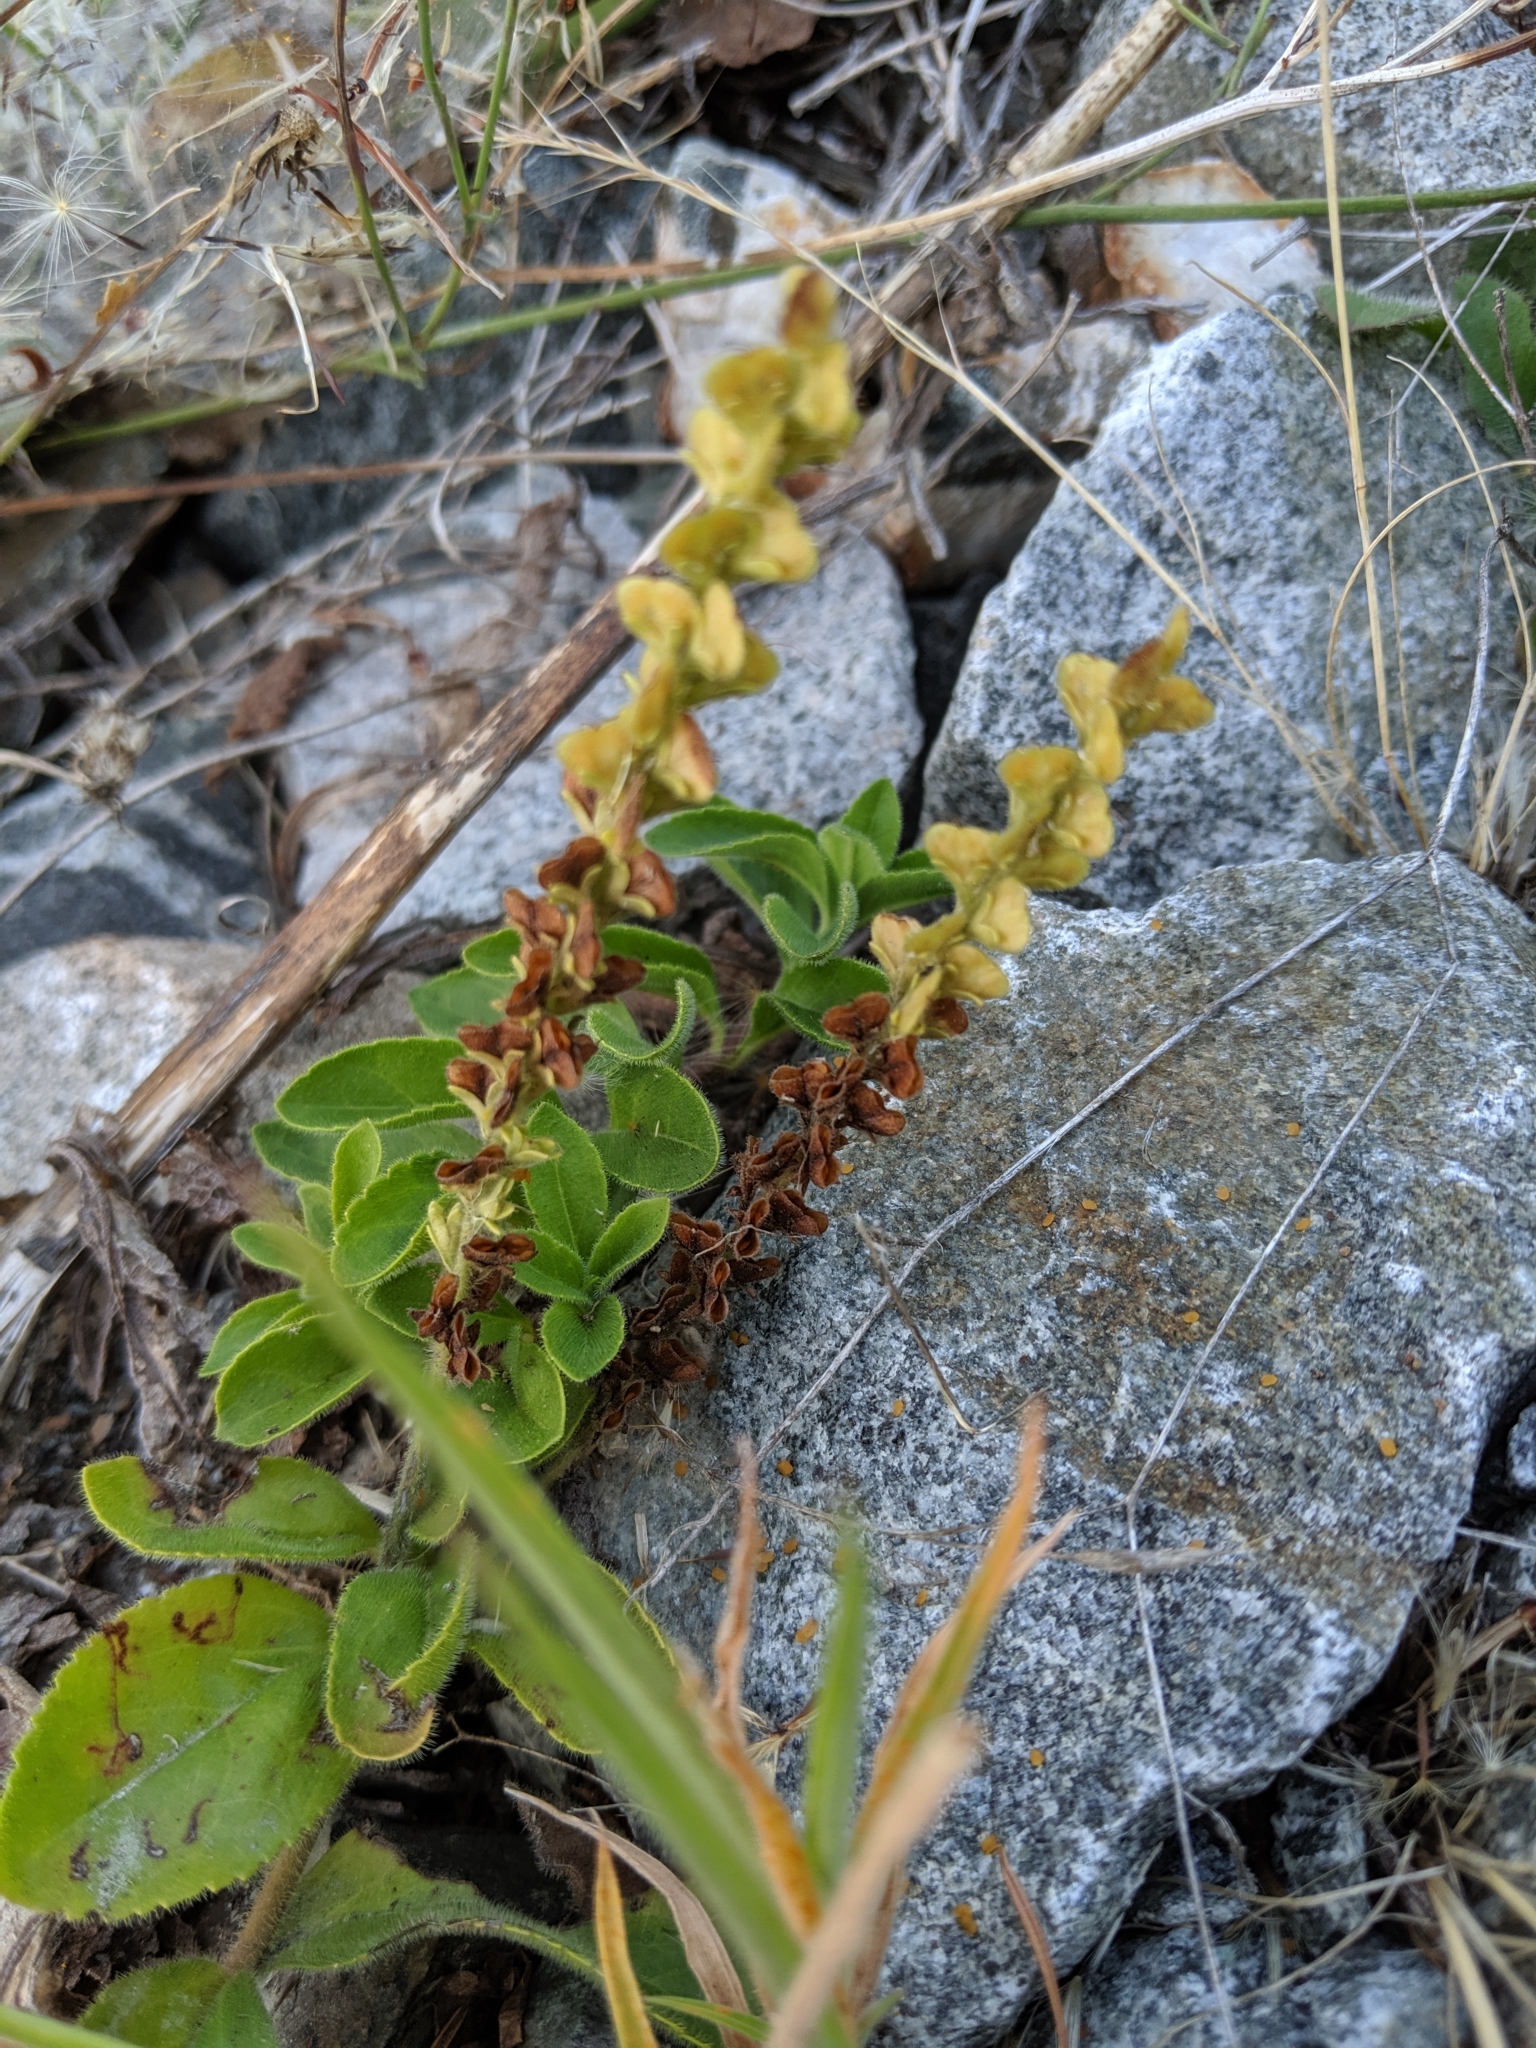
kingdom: Plantae
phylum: Tracheophyta
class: Magnoliopsida
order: Lamiales
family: Plantaginaceae
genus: Veronica
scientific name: Veronica officinalis
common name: Common speedwell
